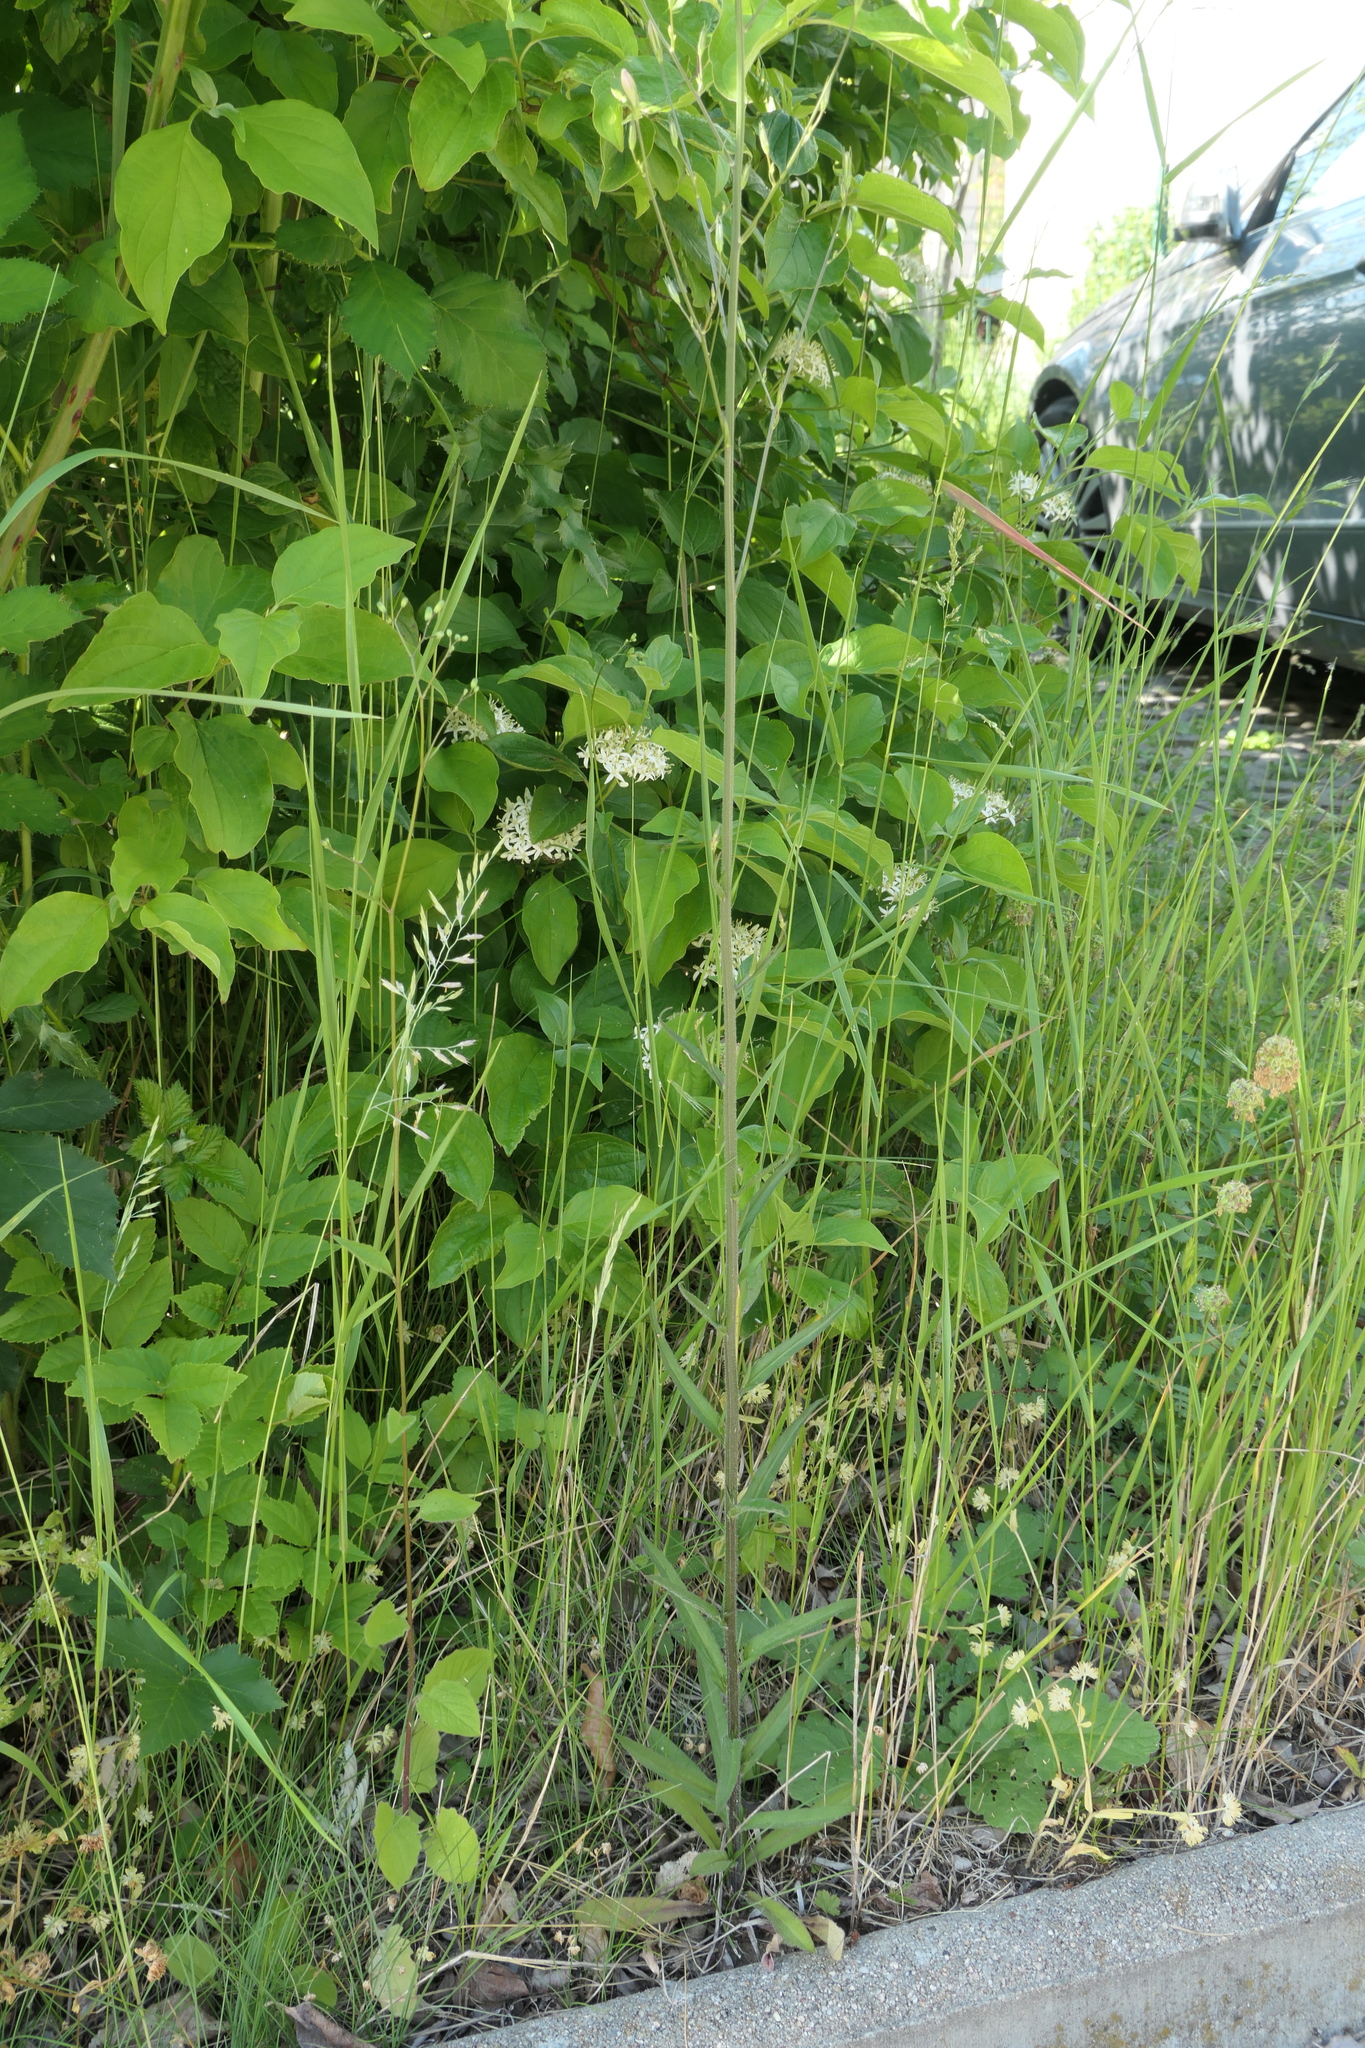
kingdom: Plantae
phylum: Tracheophyta
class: Magnoliopsida
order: Asterales
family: Campanulaceae
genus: Campanula
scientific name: Campanula rapunculus
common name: Rampion bellflower
